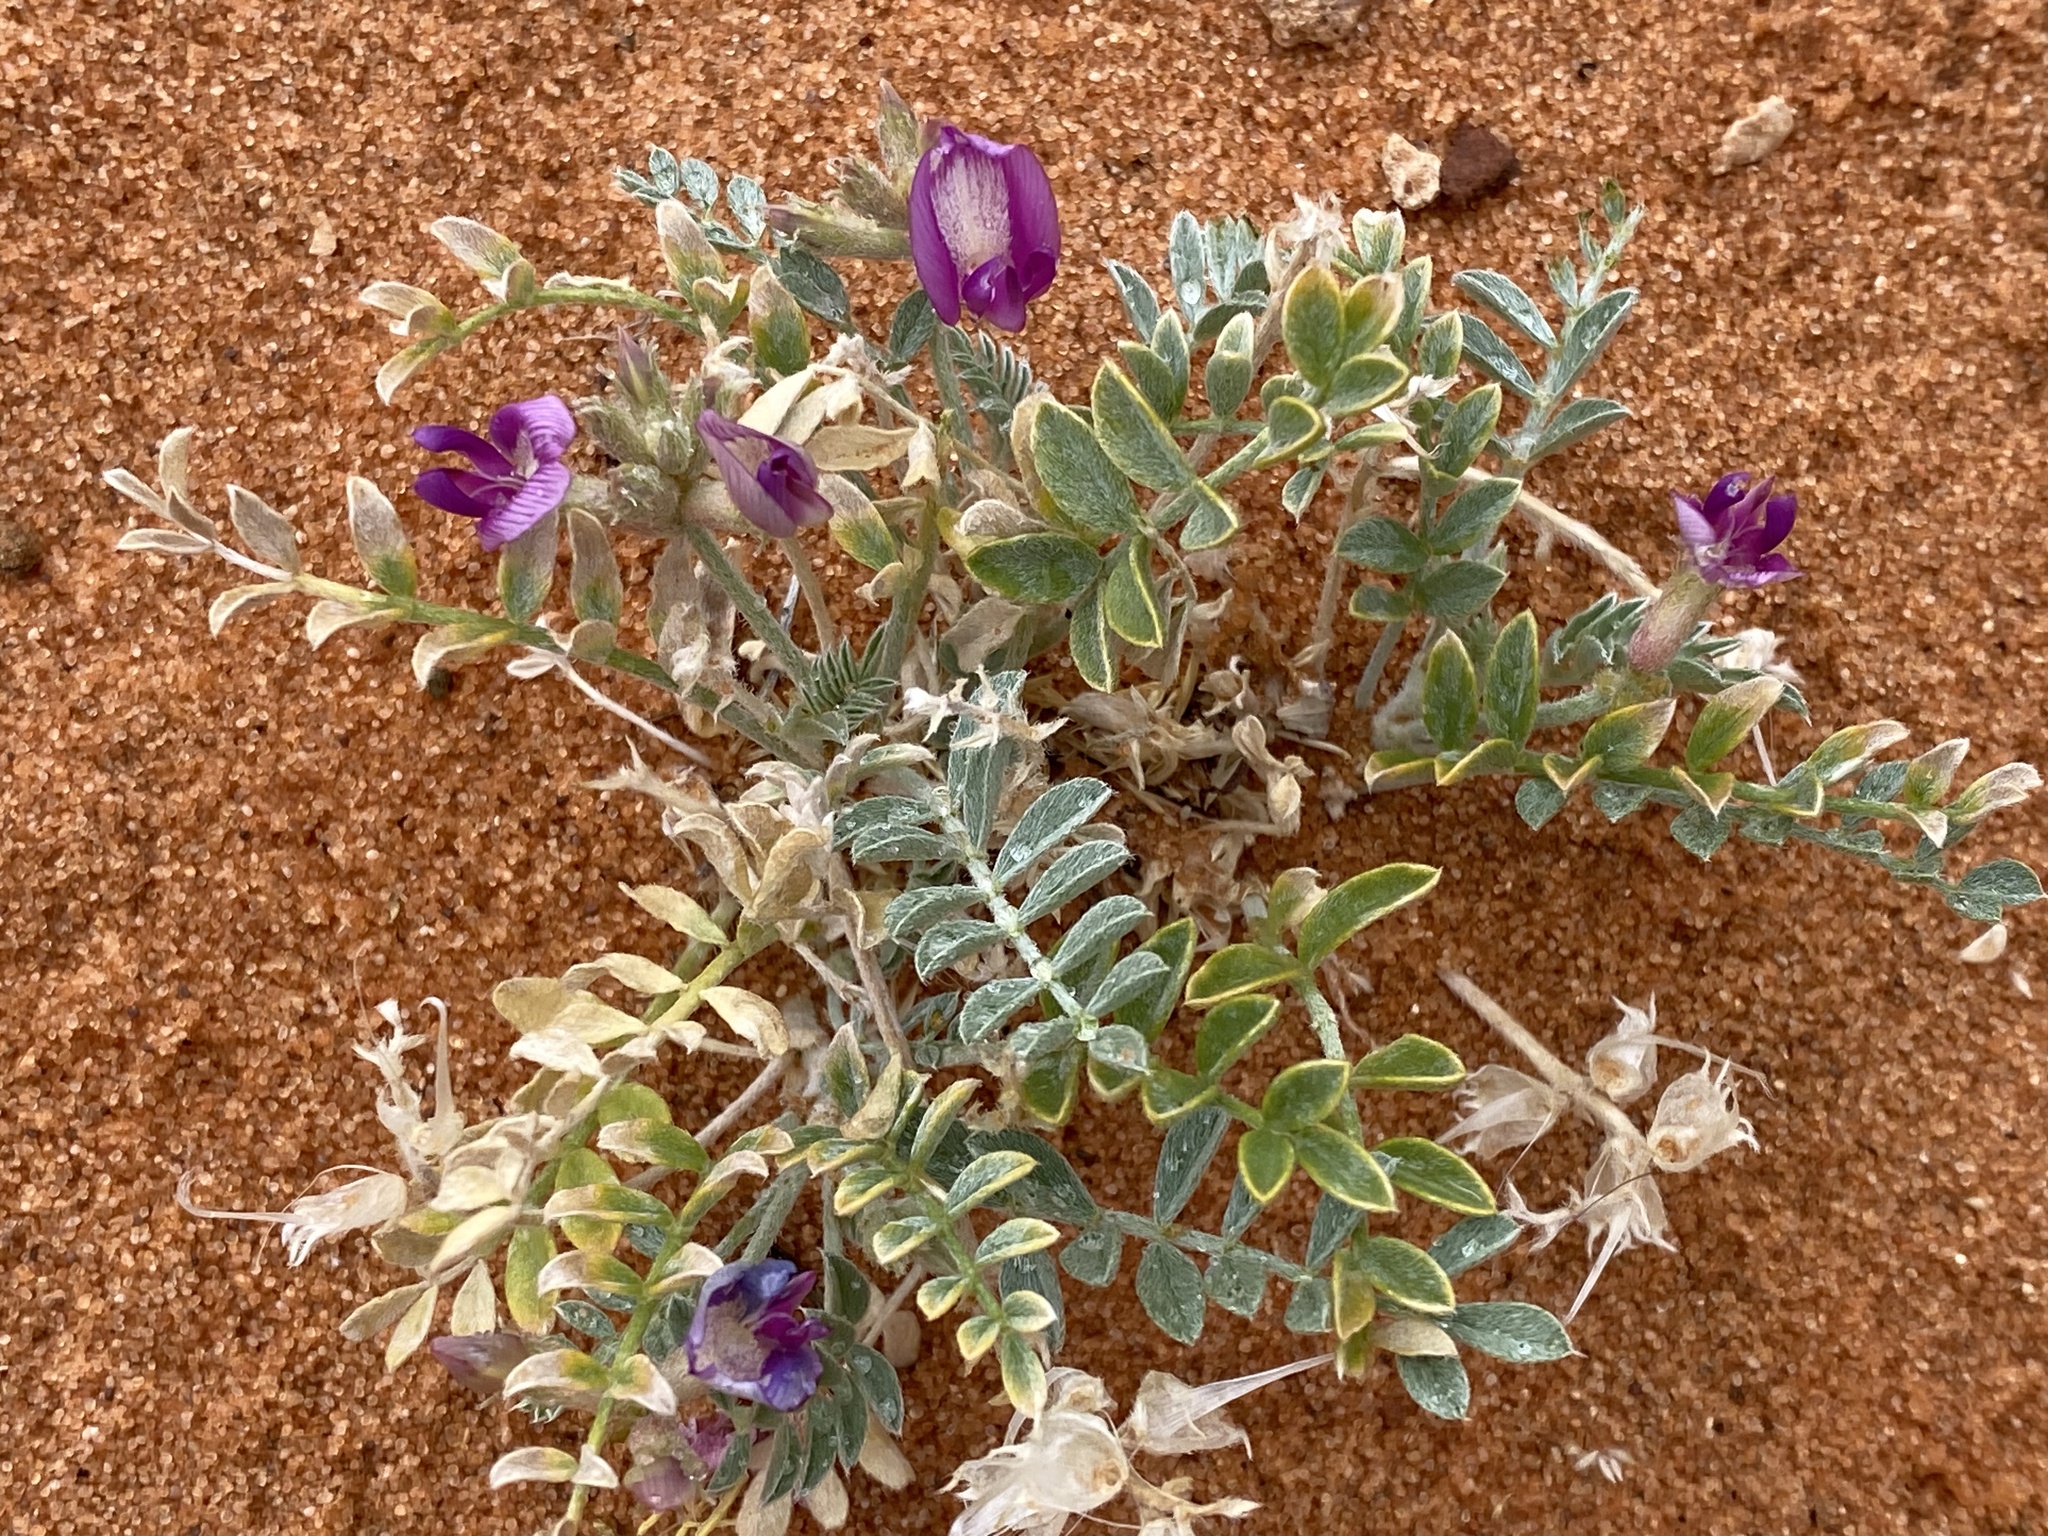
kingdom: Plantae
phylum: Tracheophyta
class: Magnoliopsida
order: Fabales
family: Fabaceae
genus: Astragalus
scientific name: Astragalus amphioxys
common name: Crescent milk-vetch
